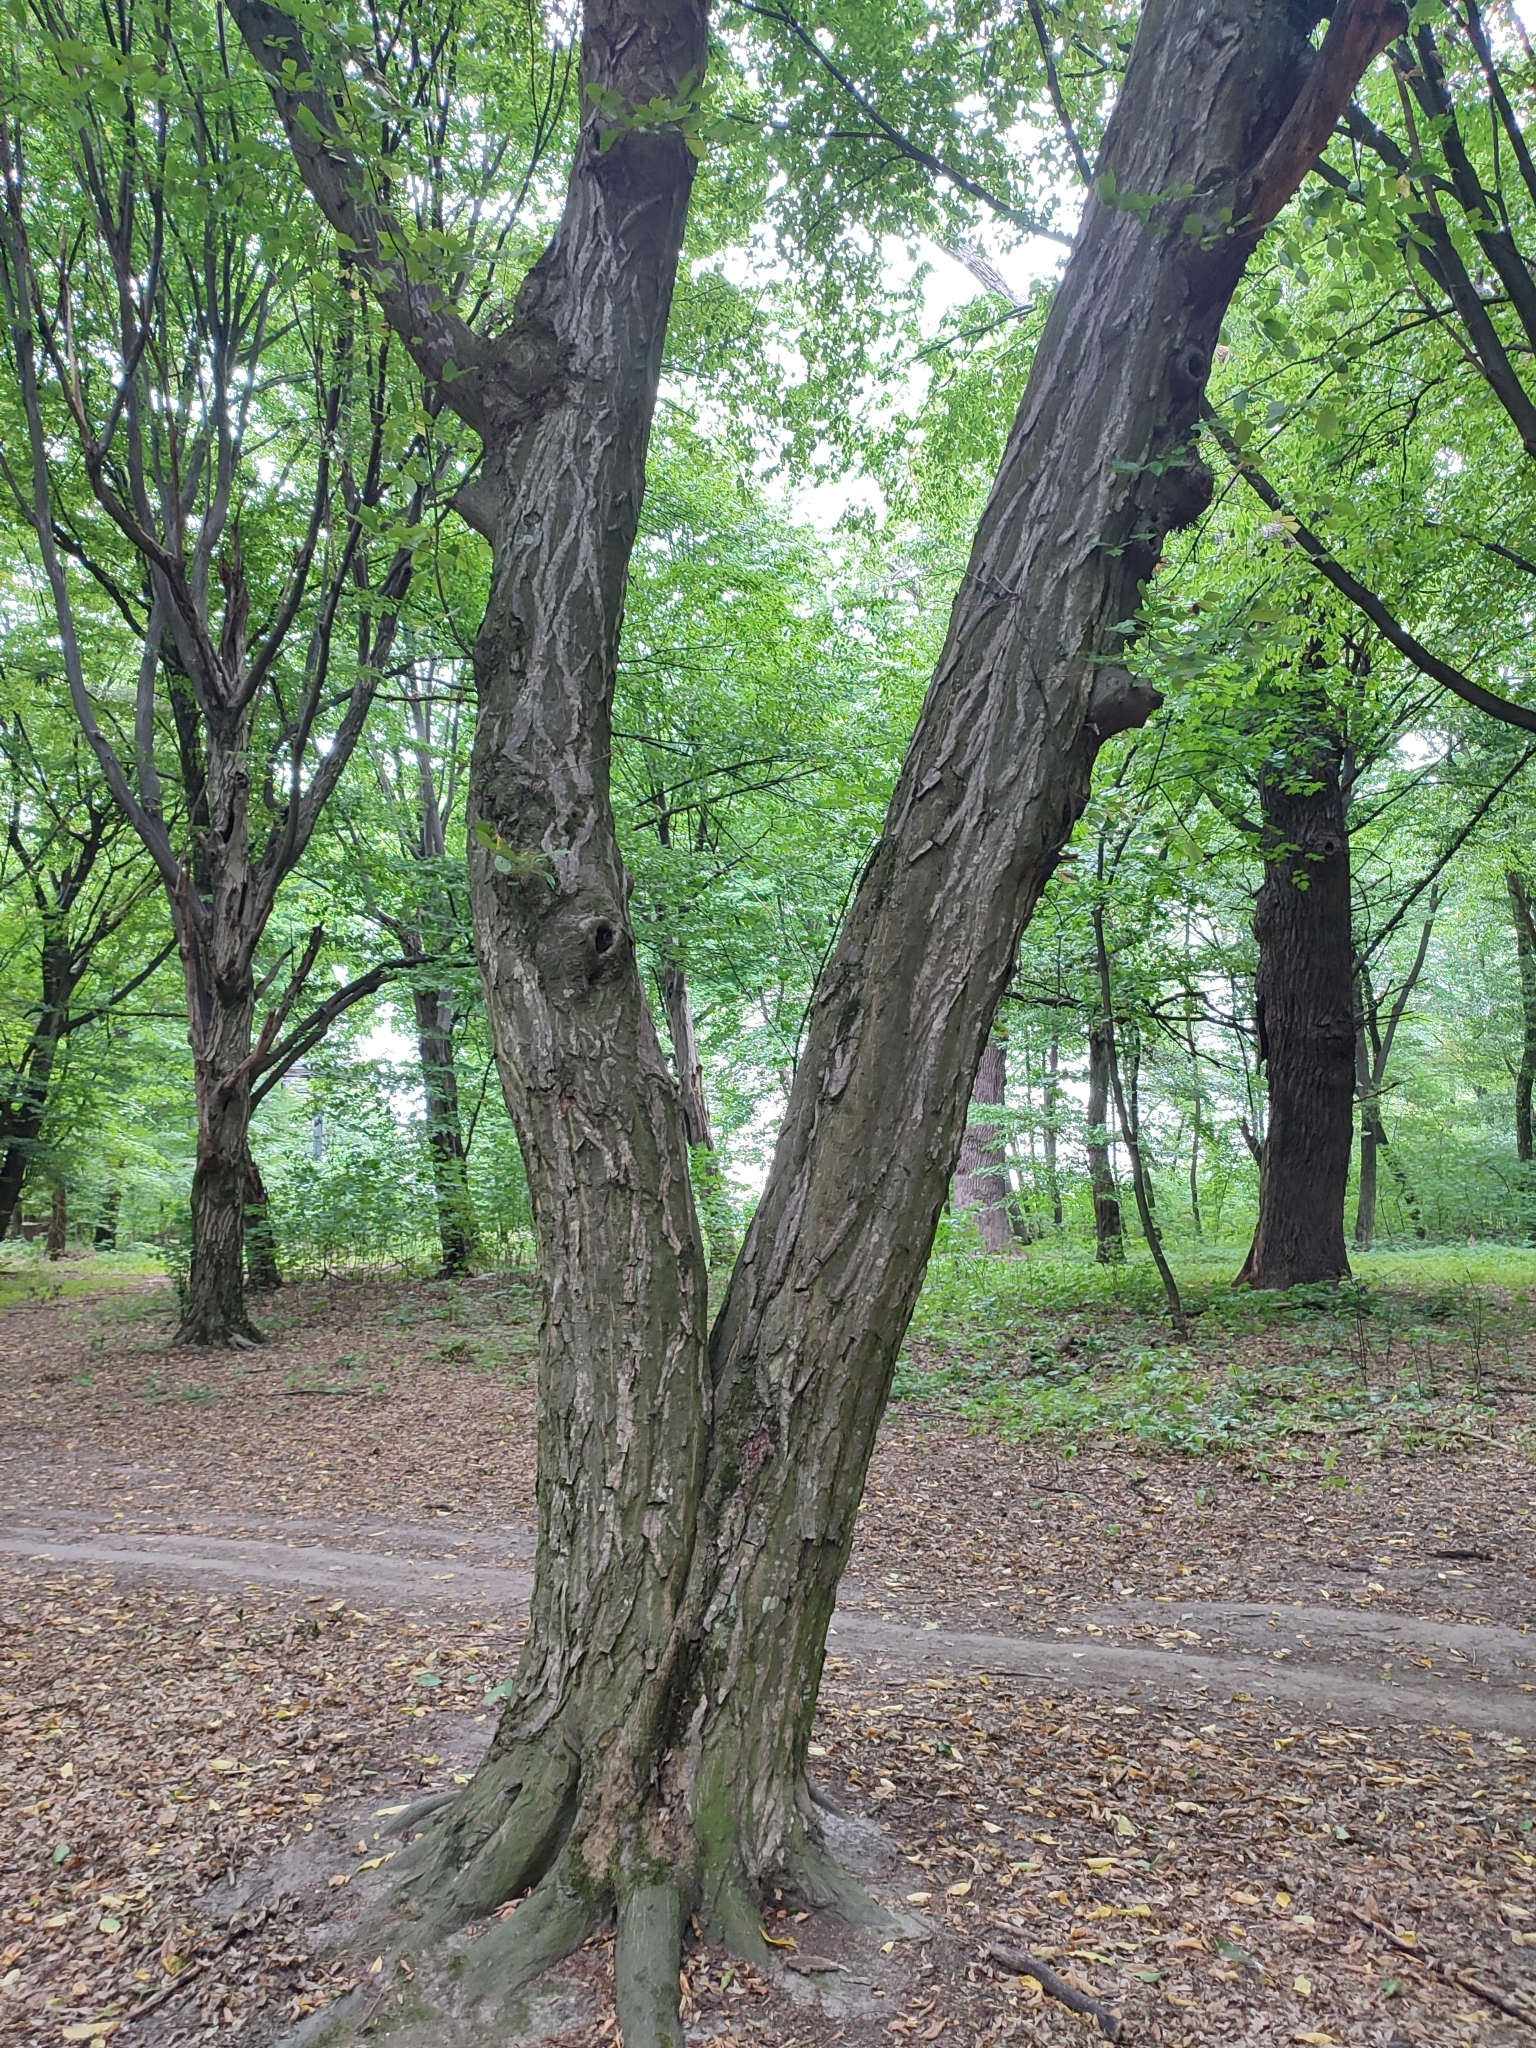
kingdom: Plantae
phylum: Tracheophyta
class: Magnoliopsida
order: Fagales
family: Betulaceae
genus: Carpinus
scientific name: Carpinus betulus
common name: Hornbeam
